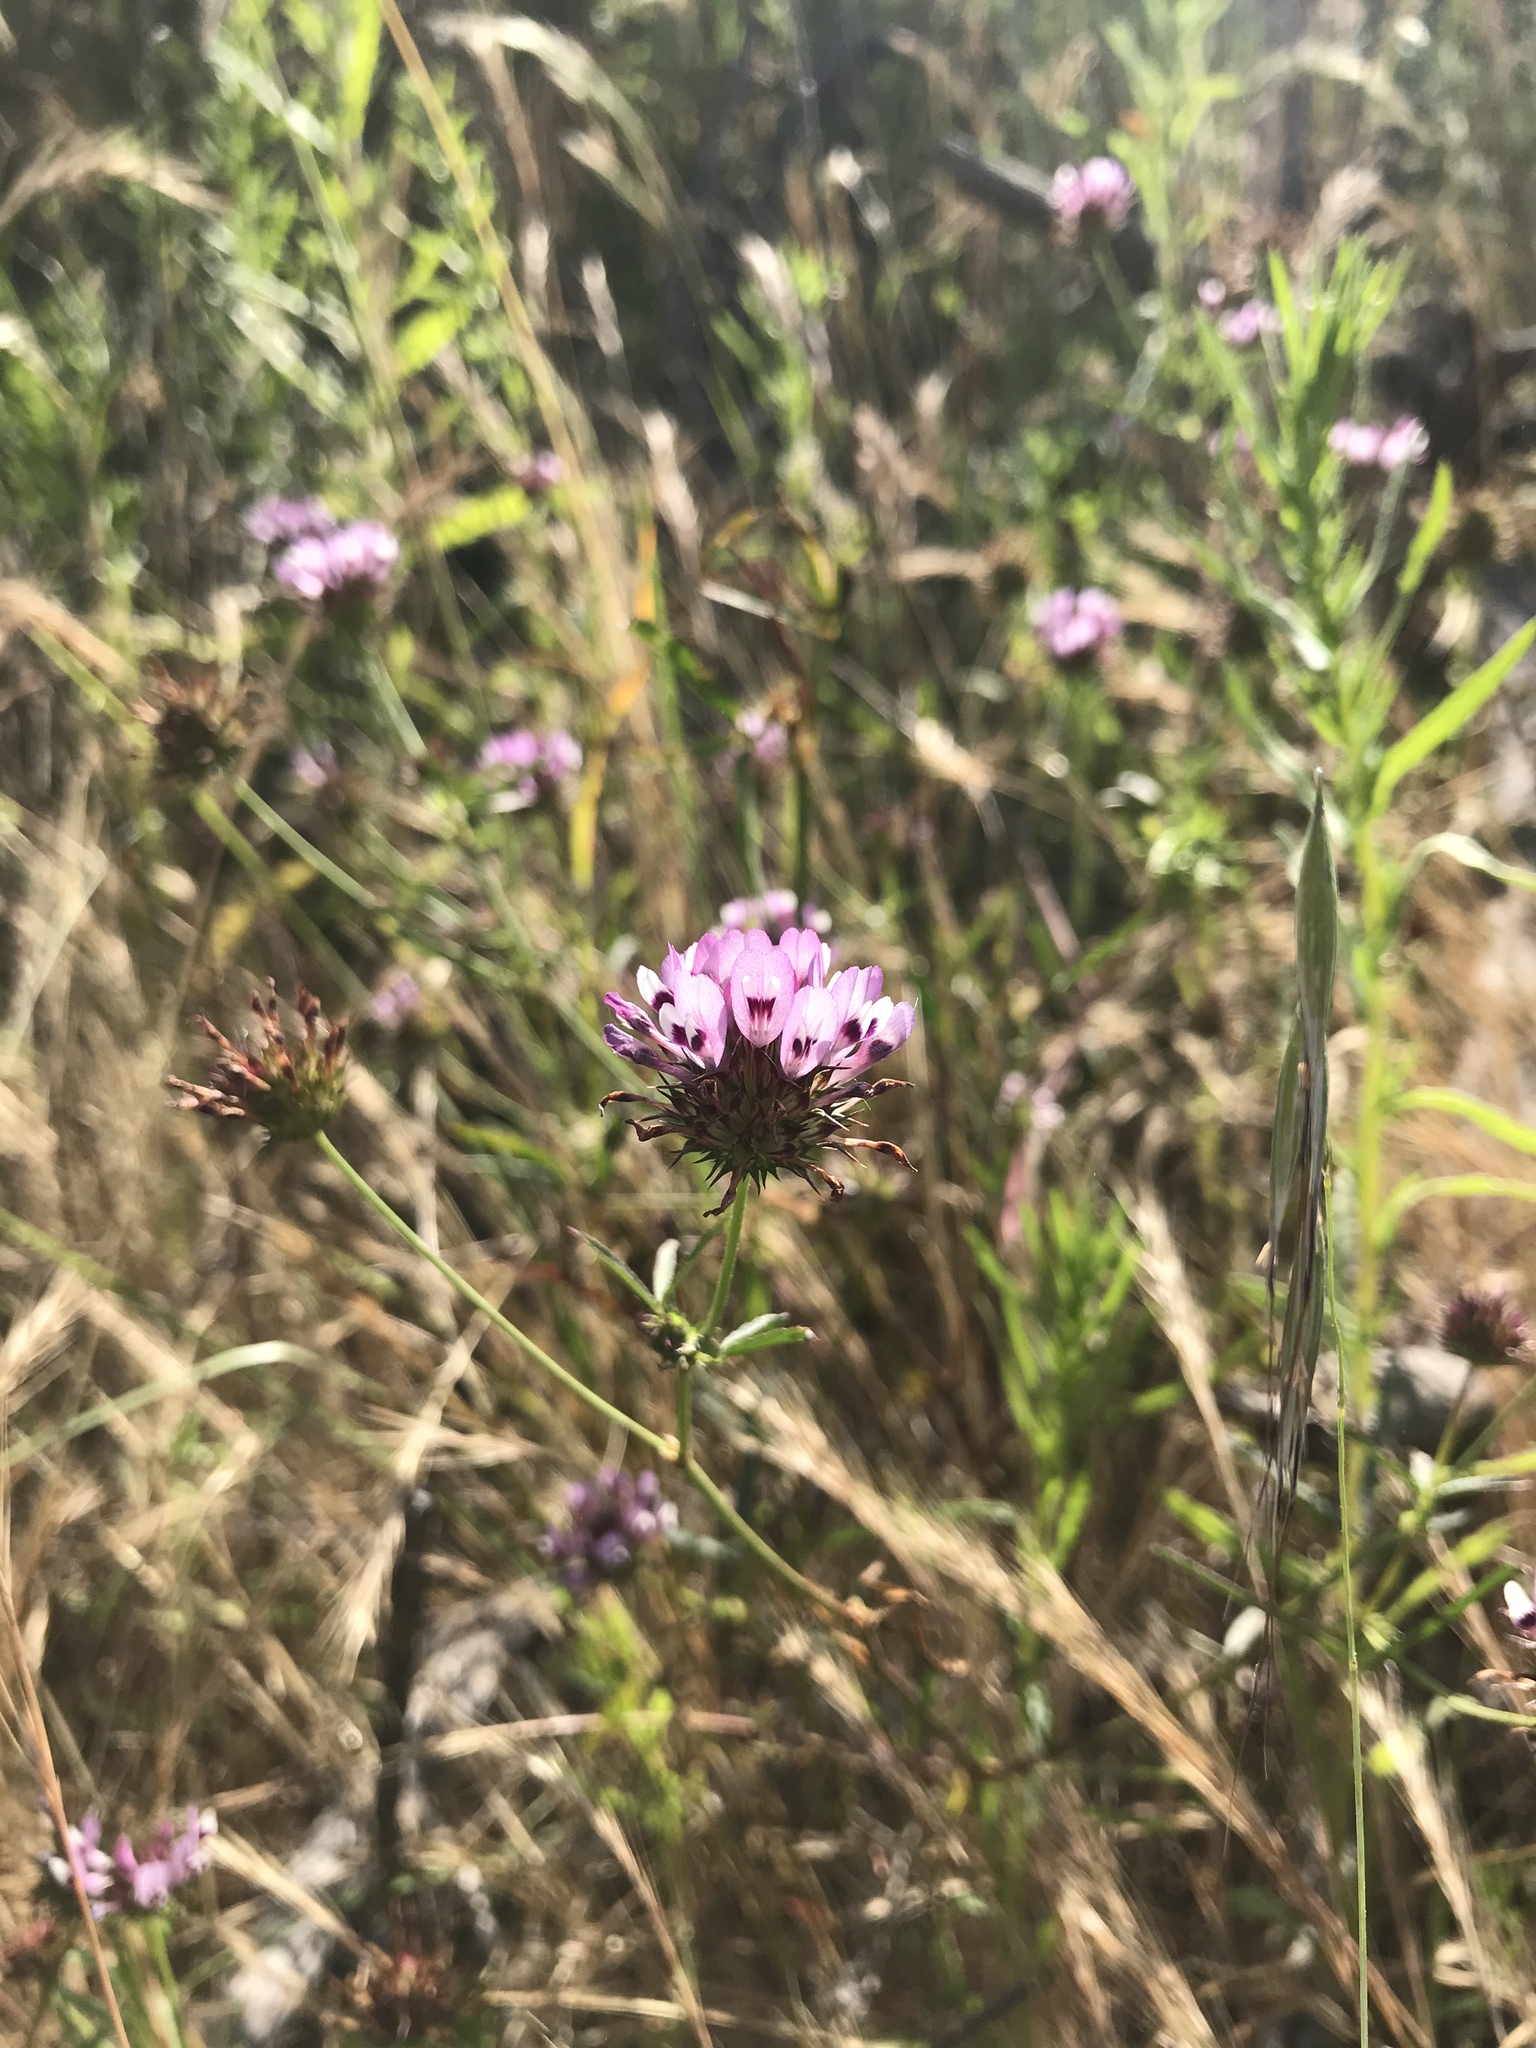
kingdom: Plantae
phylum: Tracheophyta
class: Magnoliopsida
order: Fabales
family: Fabaceae
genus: Trifolium
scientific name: Trifolium willdenovii
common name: Tomcat clover
